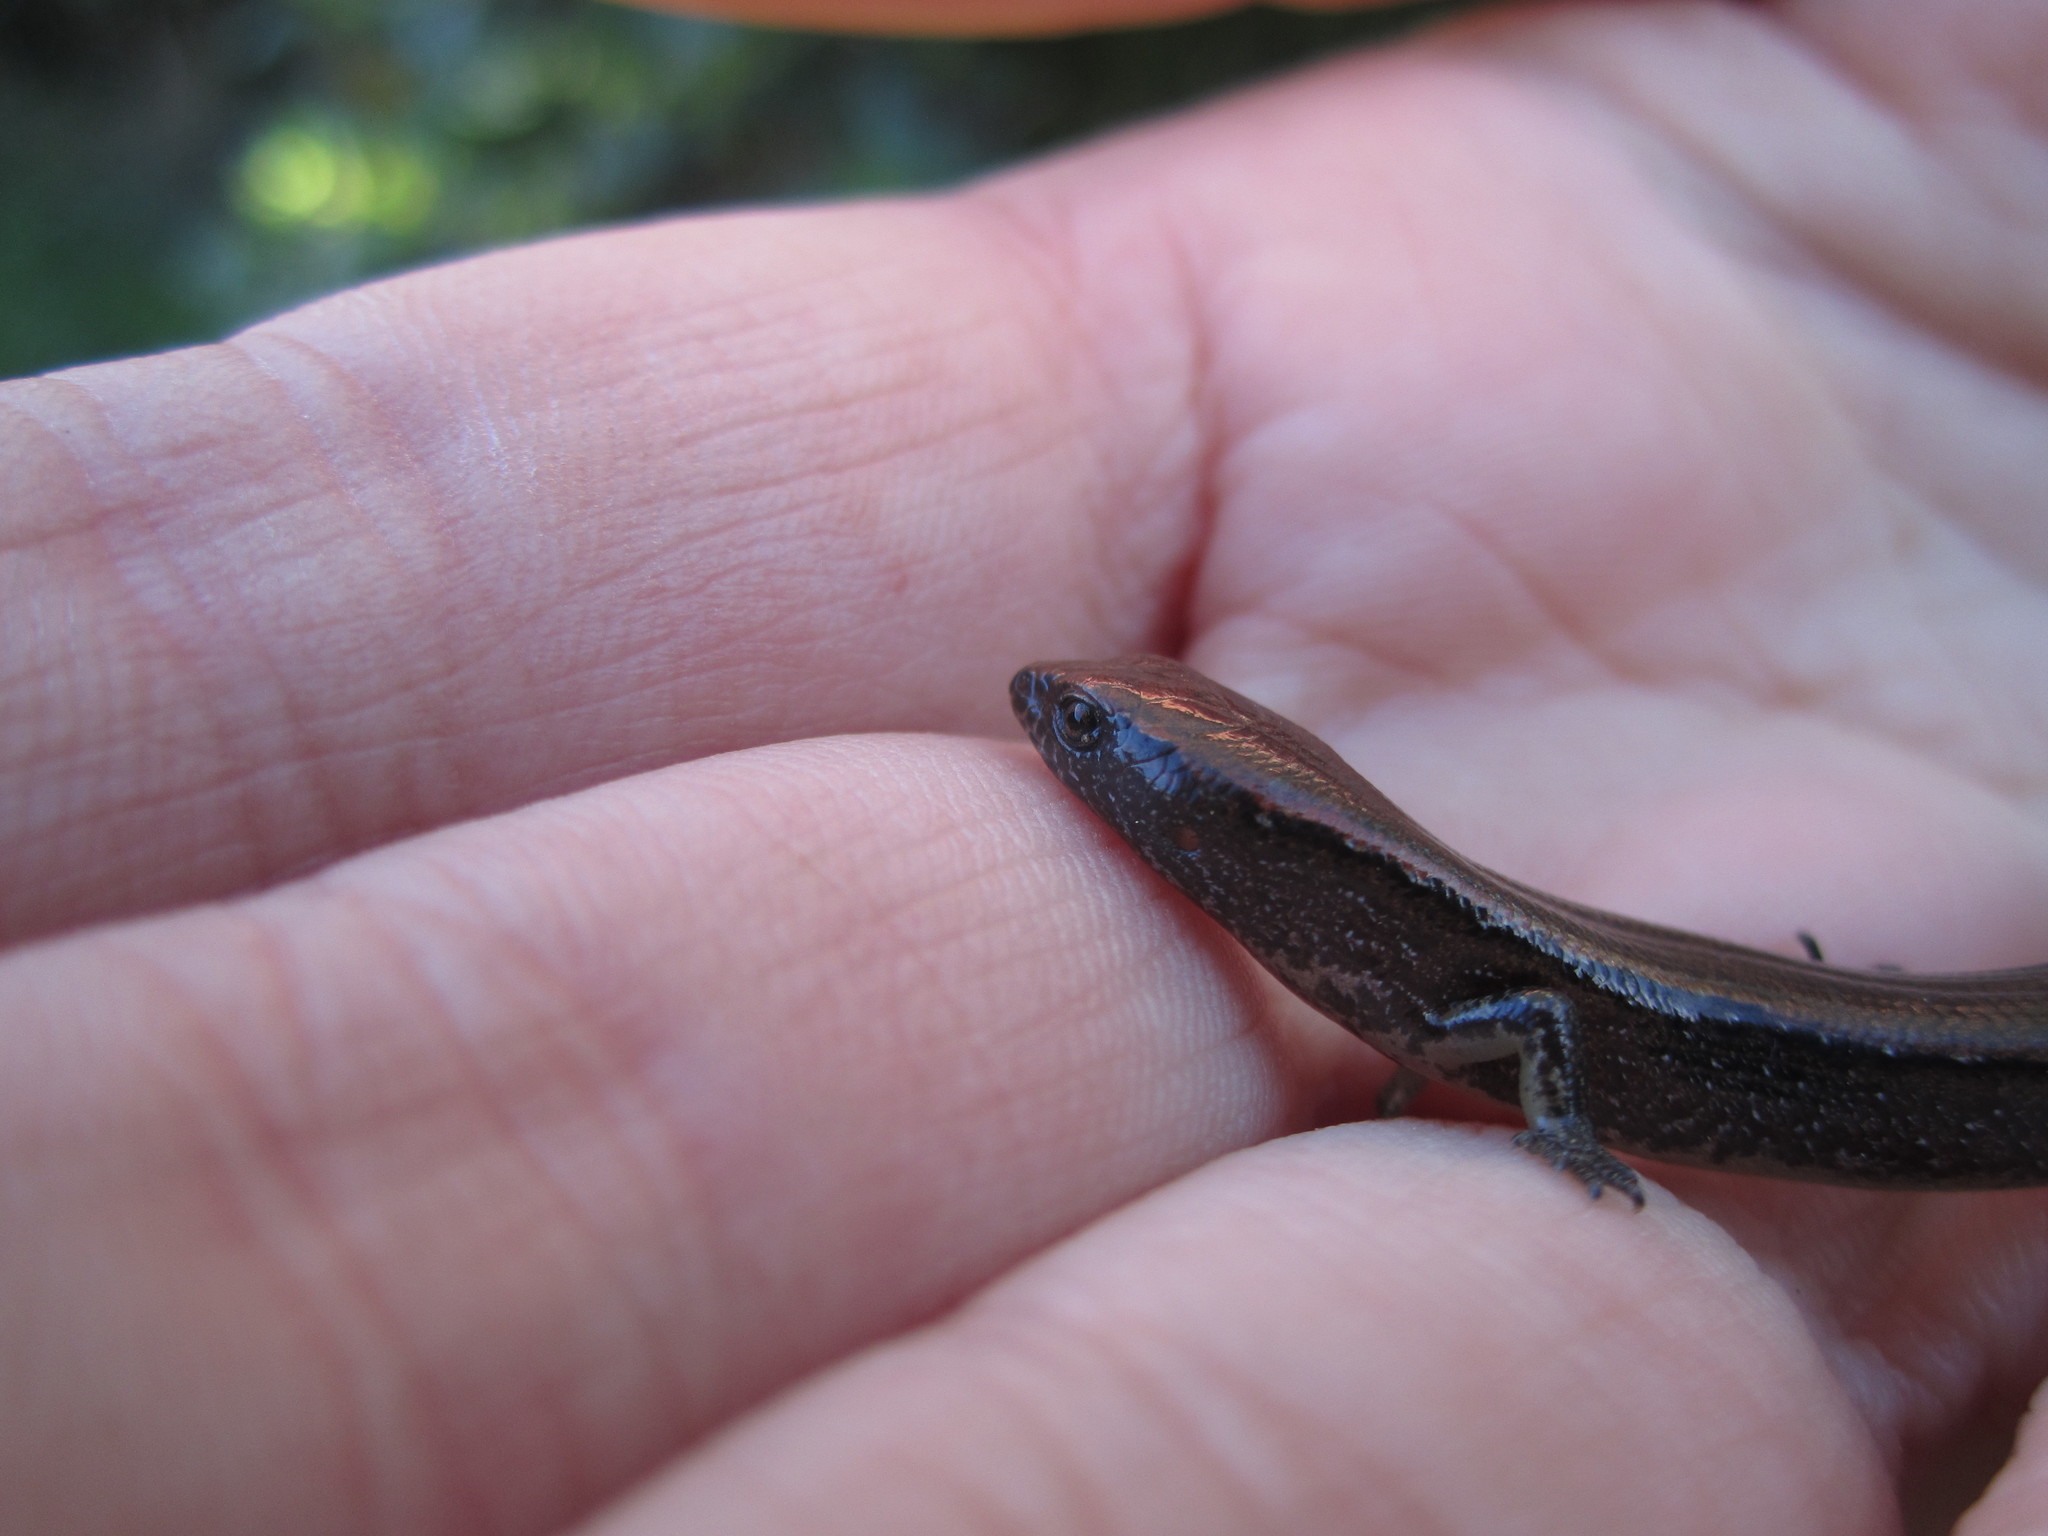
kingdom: Animalia
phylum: Chordata
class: Squamata
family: Scincidae
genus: Oligosoma
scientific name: Oligosoma aeneum
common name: Copper skink
